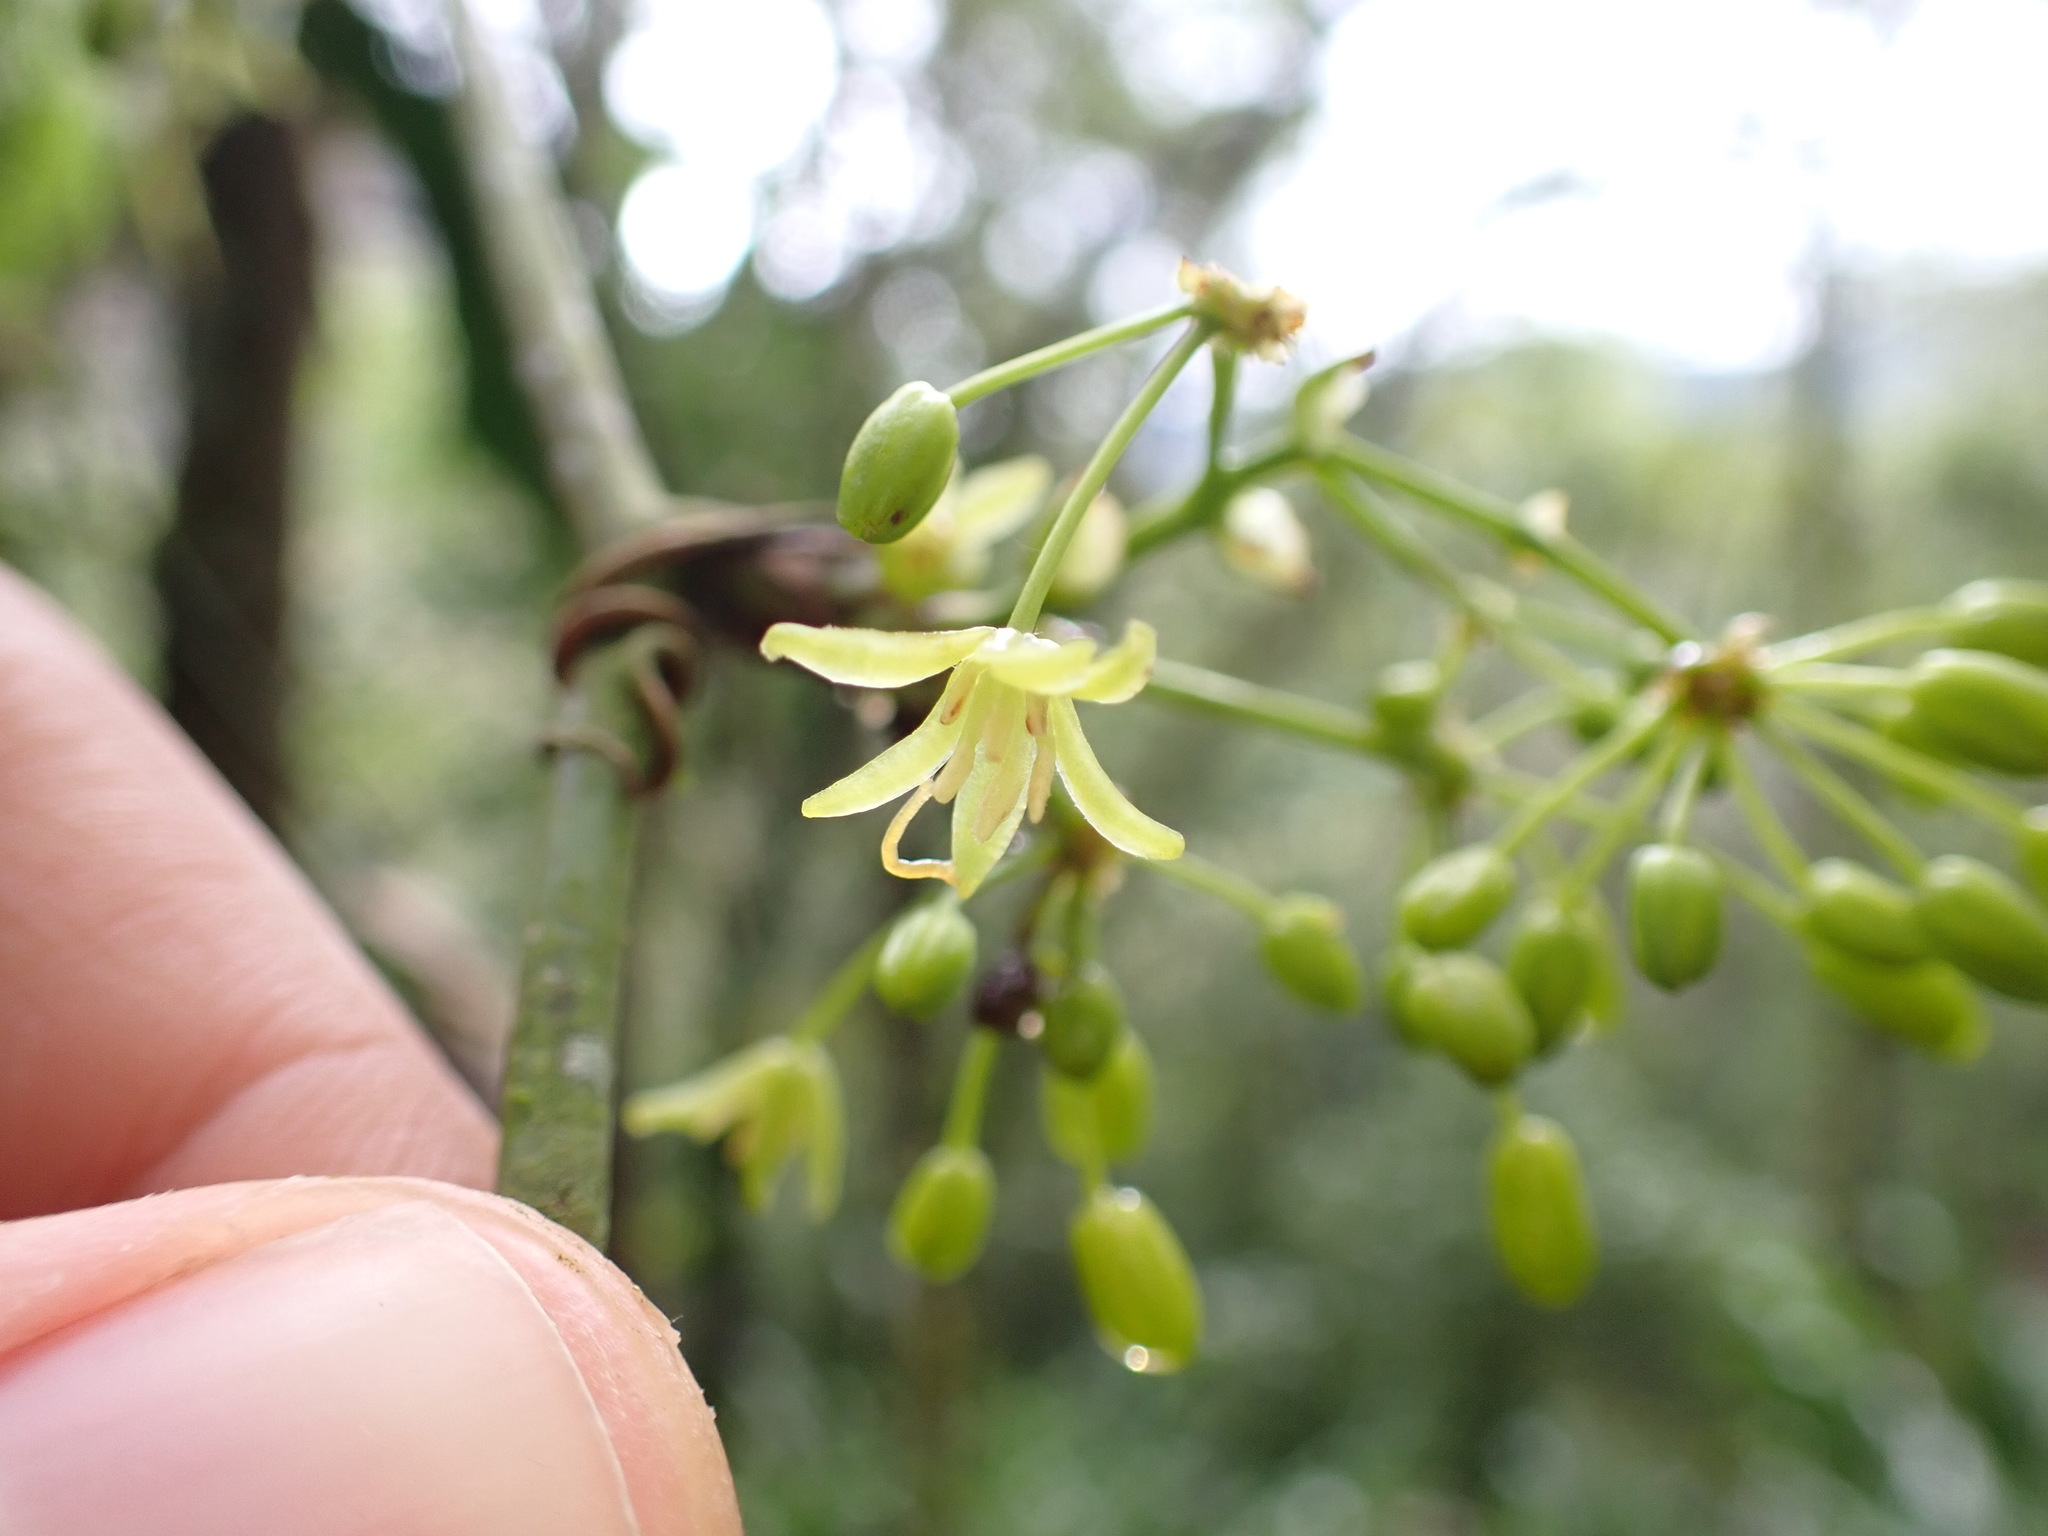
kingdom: Plantae
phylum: Tracheophyta
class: Liliopsida
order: Liliales
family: Smilacaceae
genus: Smilax
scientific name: Smilax domingensis
